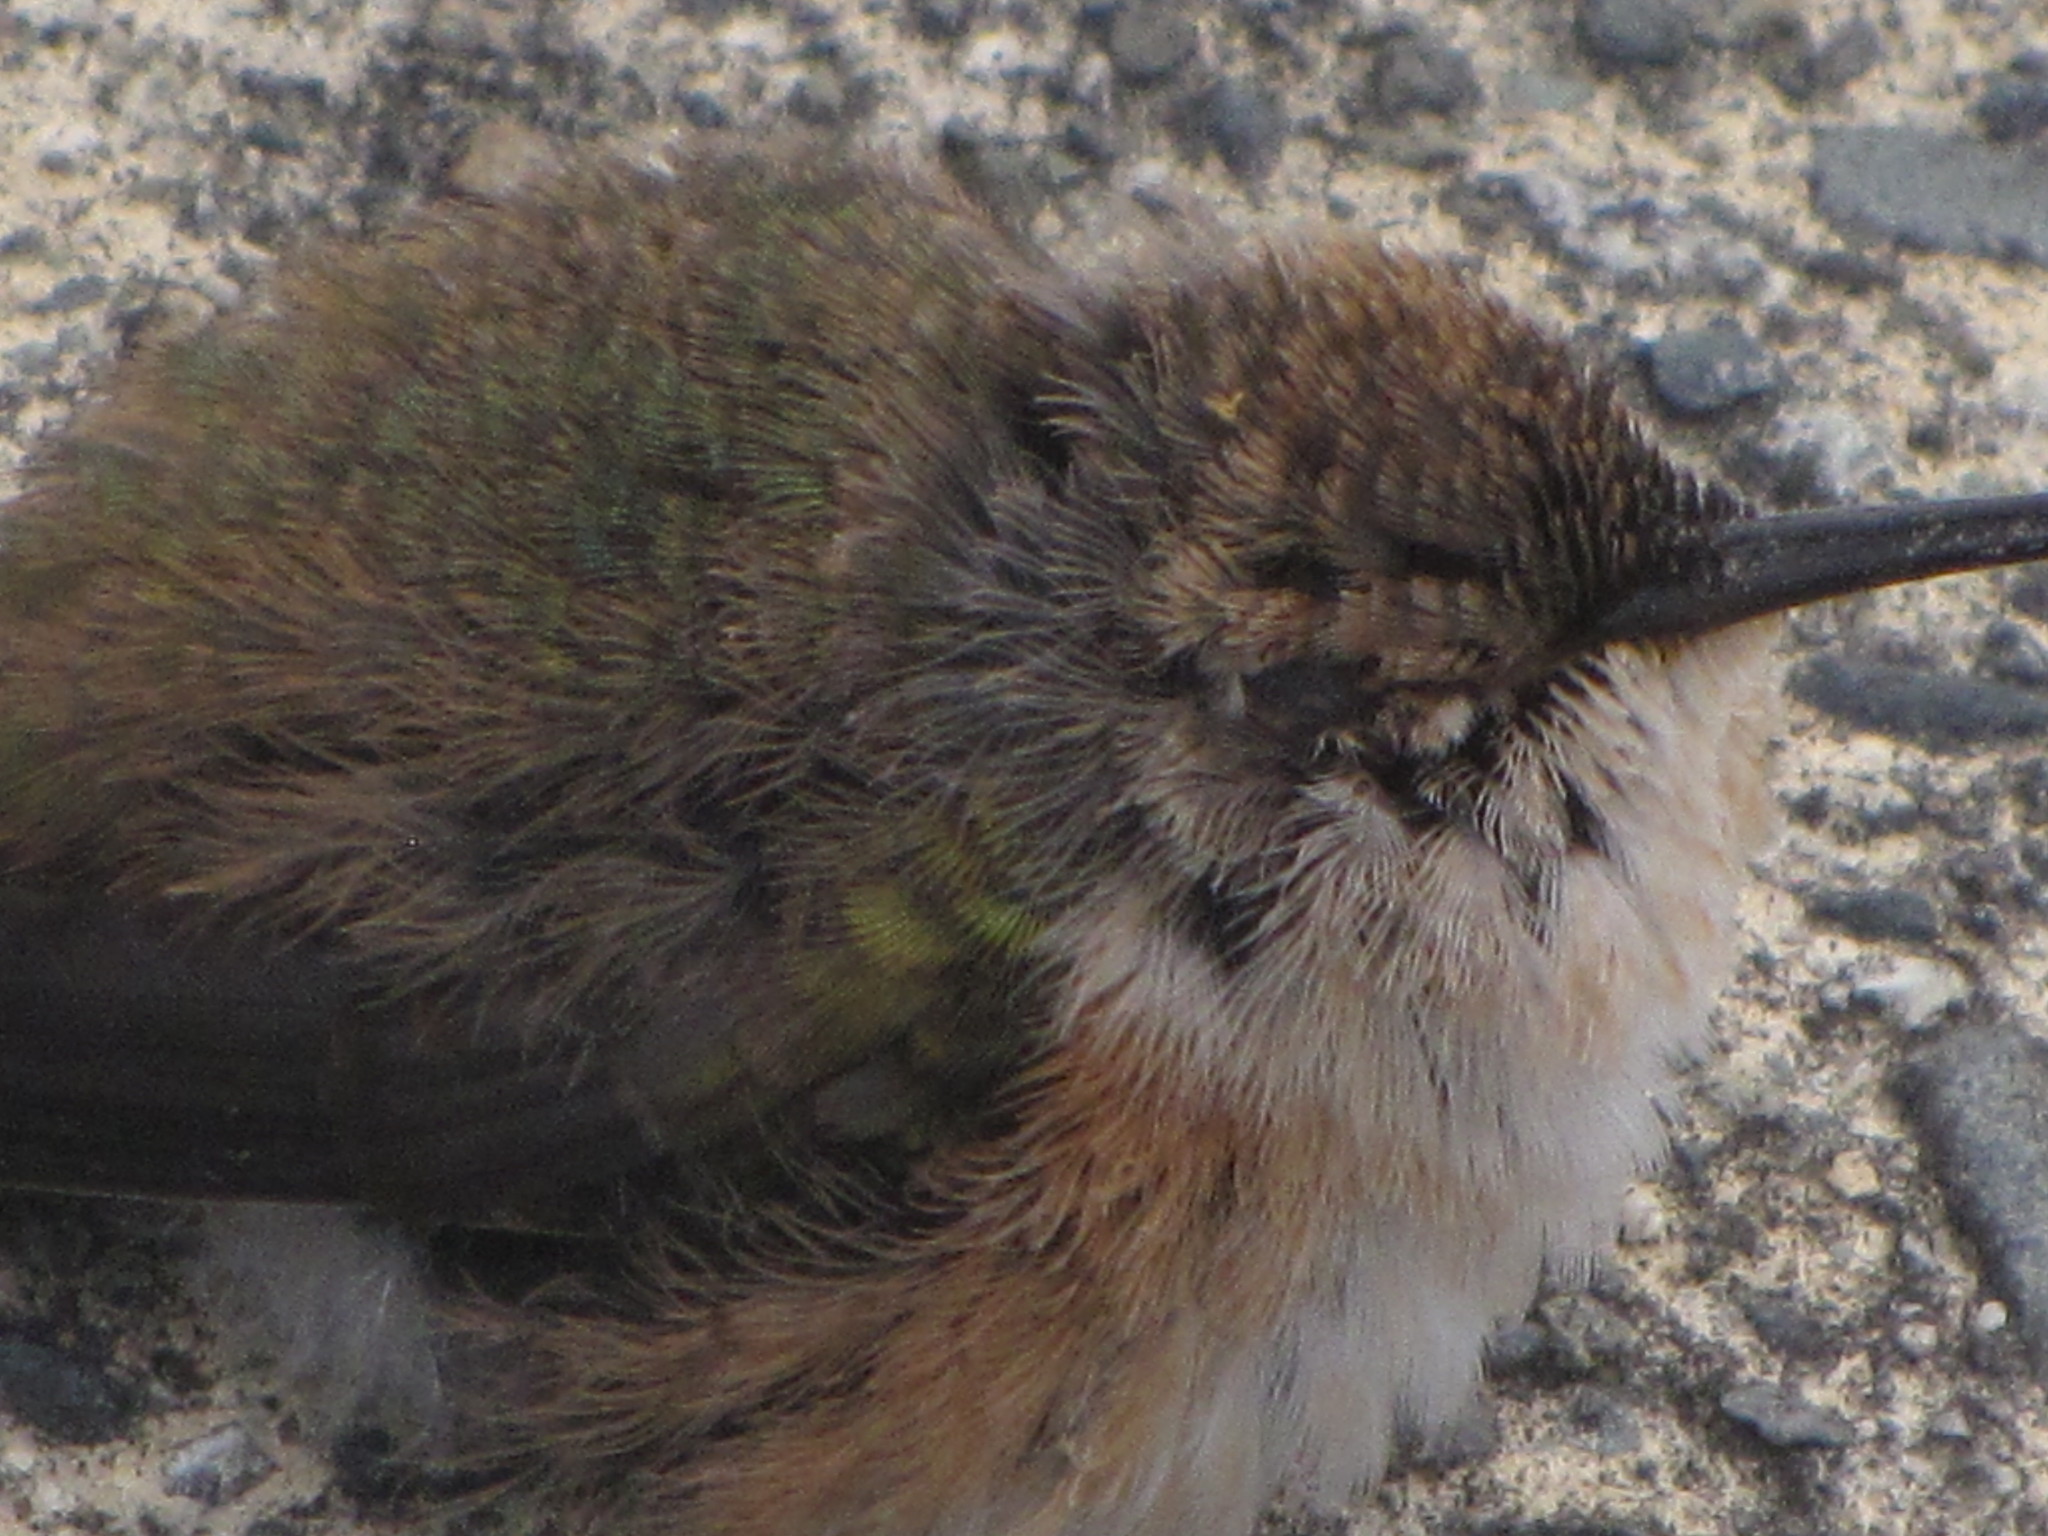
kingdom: Animalia
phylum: Chordata
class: Aves
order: Apodiformes
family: Trochilidae
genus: Selasphorus
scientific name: Selasphorus rufus
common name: Rufous hummingbird
